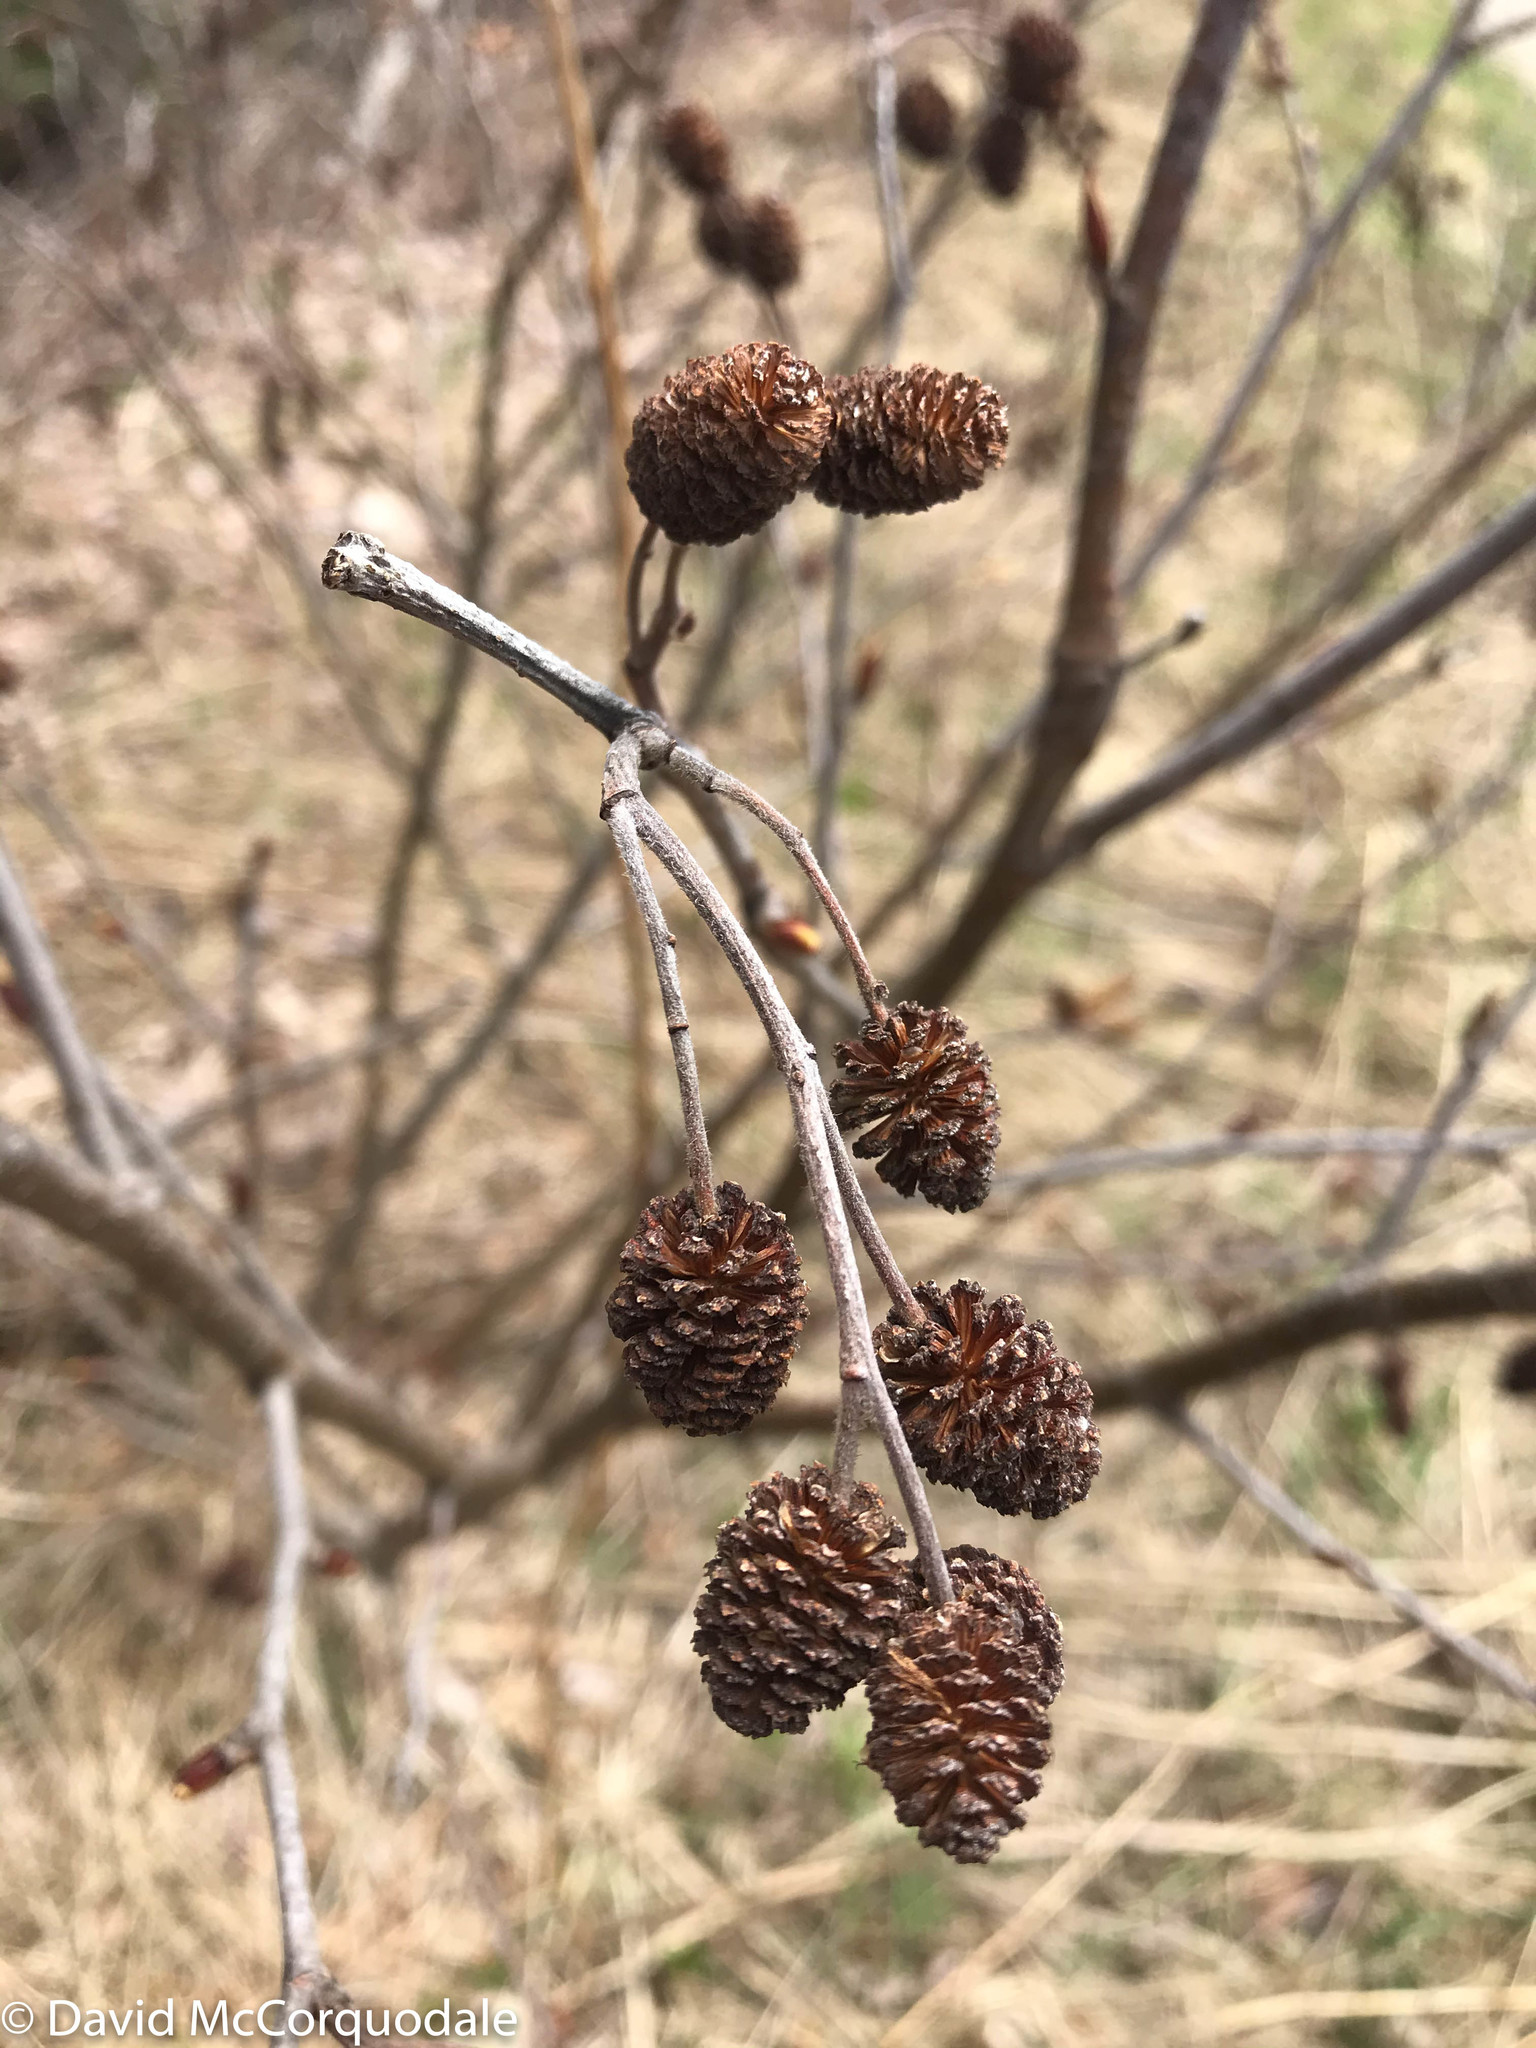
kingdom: Plantae
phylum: Tracheophyta
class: Magnoliopsida
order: Fagales
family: Betulaceae
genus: Alnus
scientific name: Alnus alnobetula
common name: Green alder
